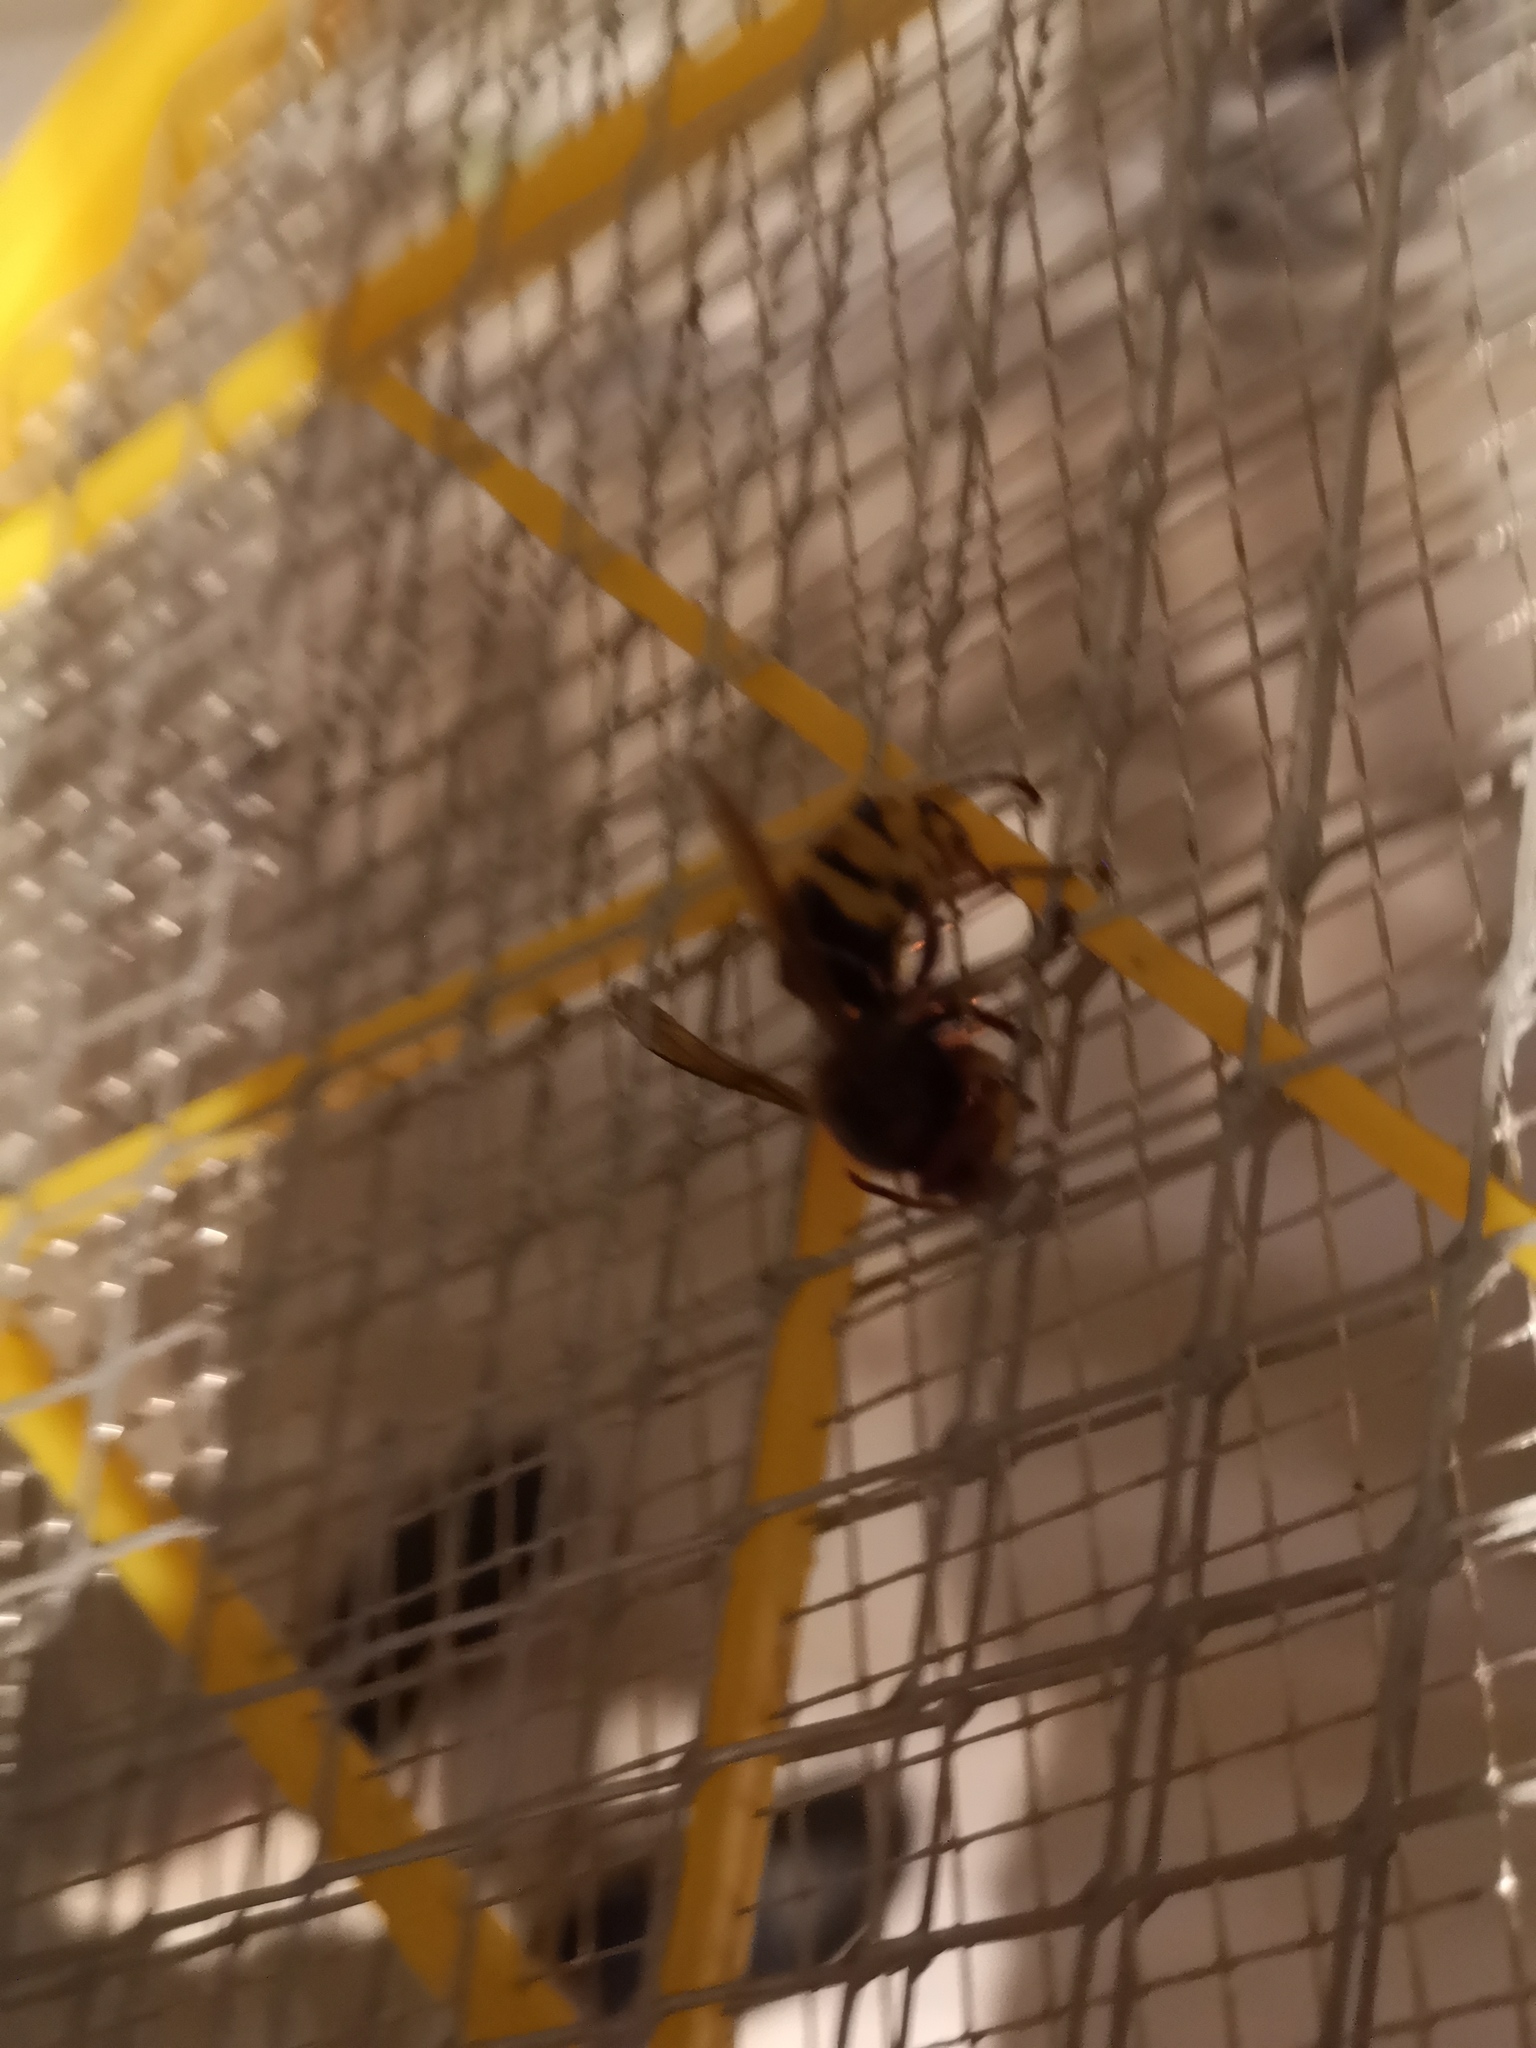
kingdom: Animalia
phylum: Arthropoda
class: Insecta
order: Hymenoptera
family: Vespidae
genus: Vespa
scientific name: Vespa crabro
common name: Hornet
